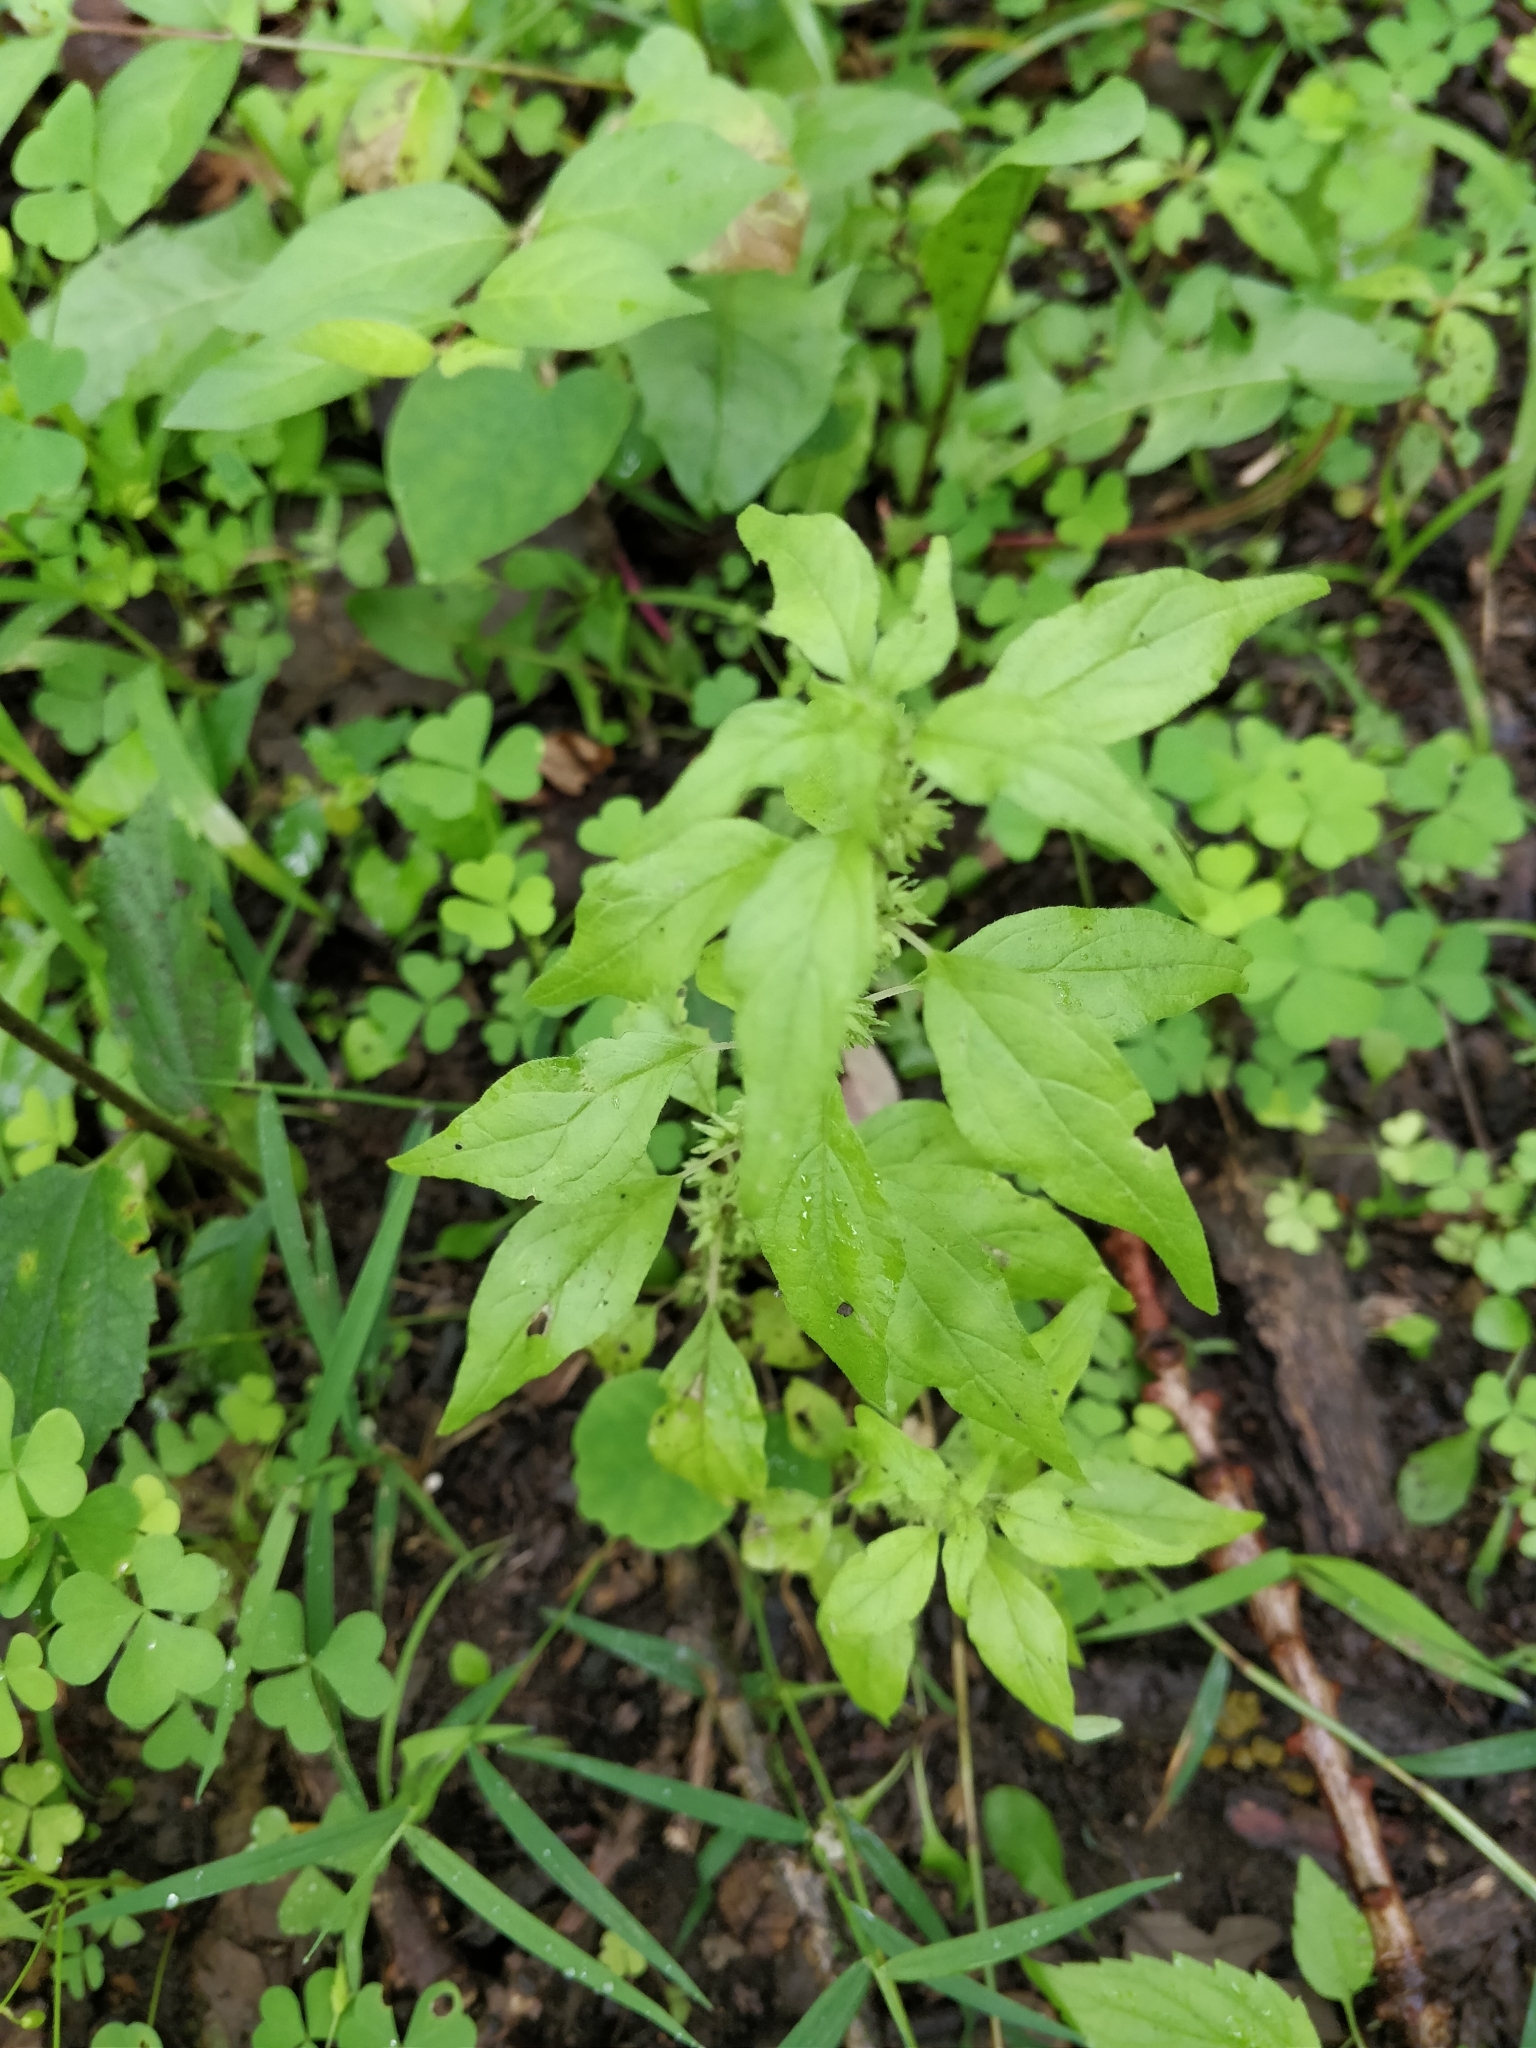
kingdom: Plantae
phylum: Tracheophyta
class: Magnoliopsida
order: Rosales
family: Urticaceae
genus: Parietaria
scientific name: Parietaria pensylvanica
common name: Pennsylvania pellitory
